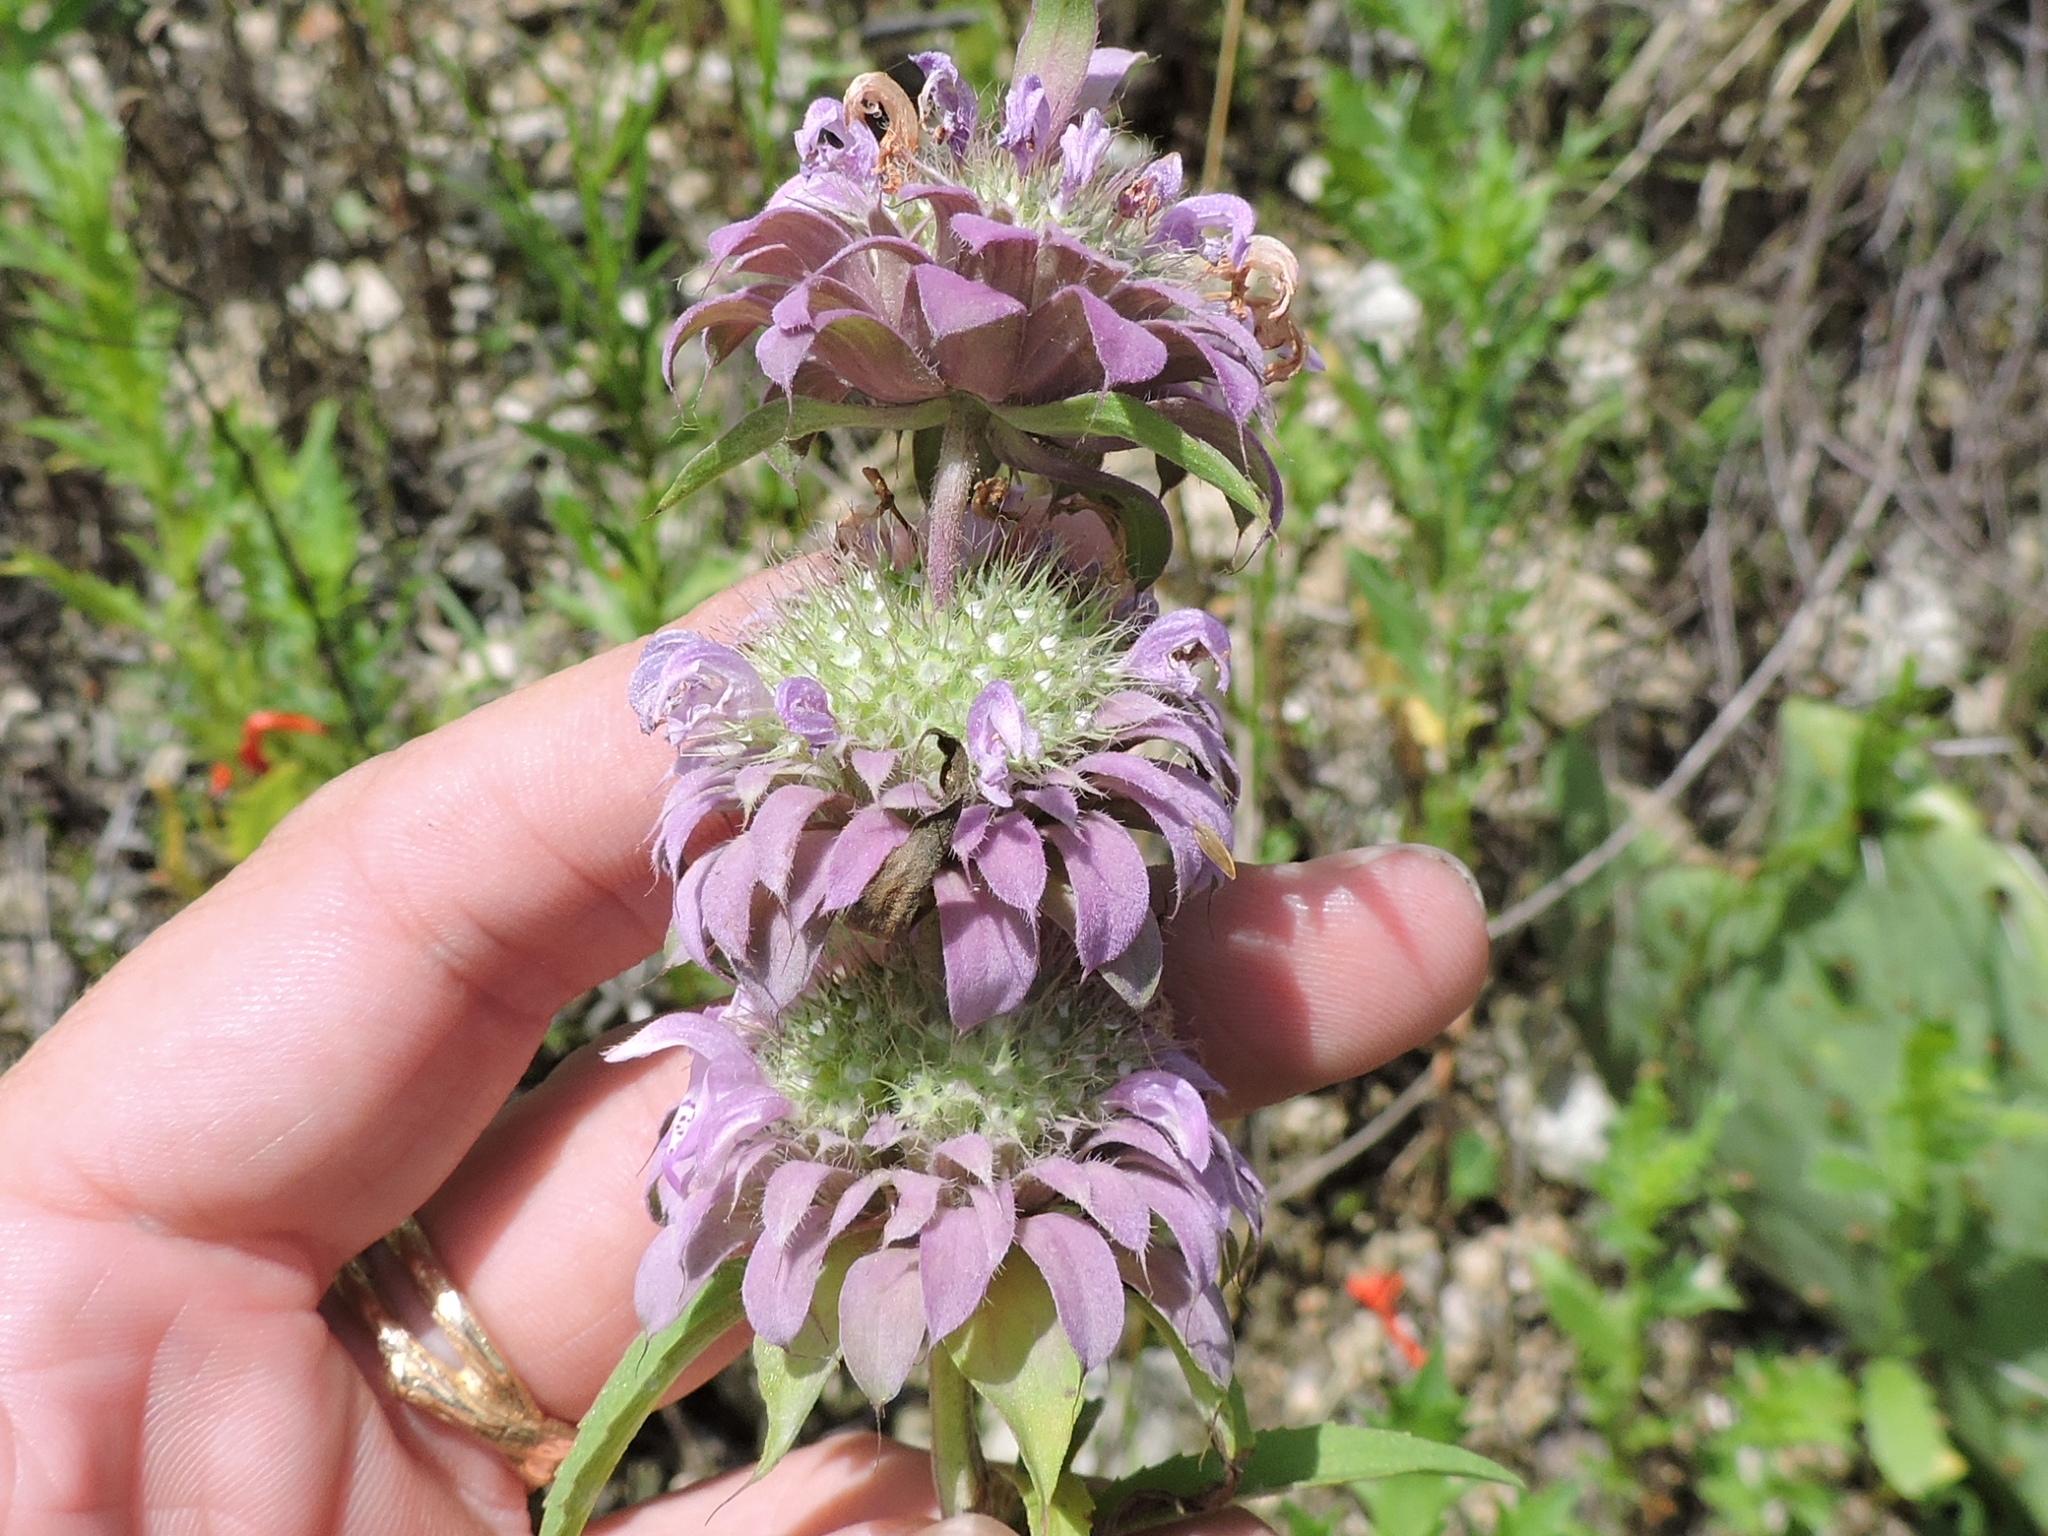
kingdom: Plantae
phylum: Tracheophyta
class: Magnoliopsida
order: Lamiales
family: Lamiaceae
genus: Monarda
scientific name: Monarda citriodora
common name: Lemon beebalm
